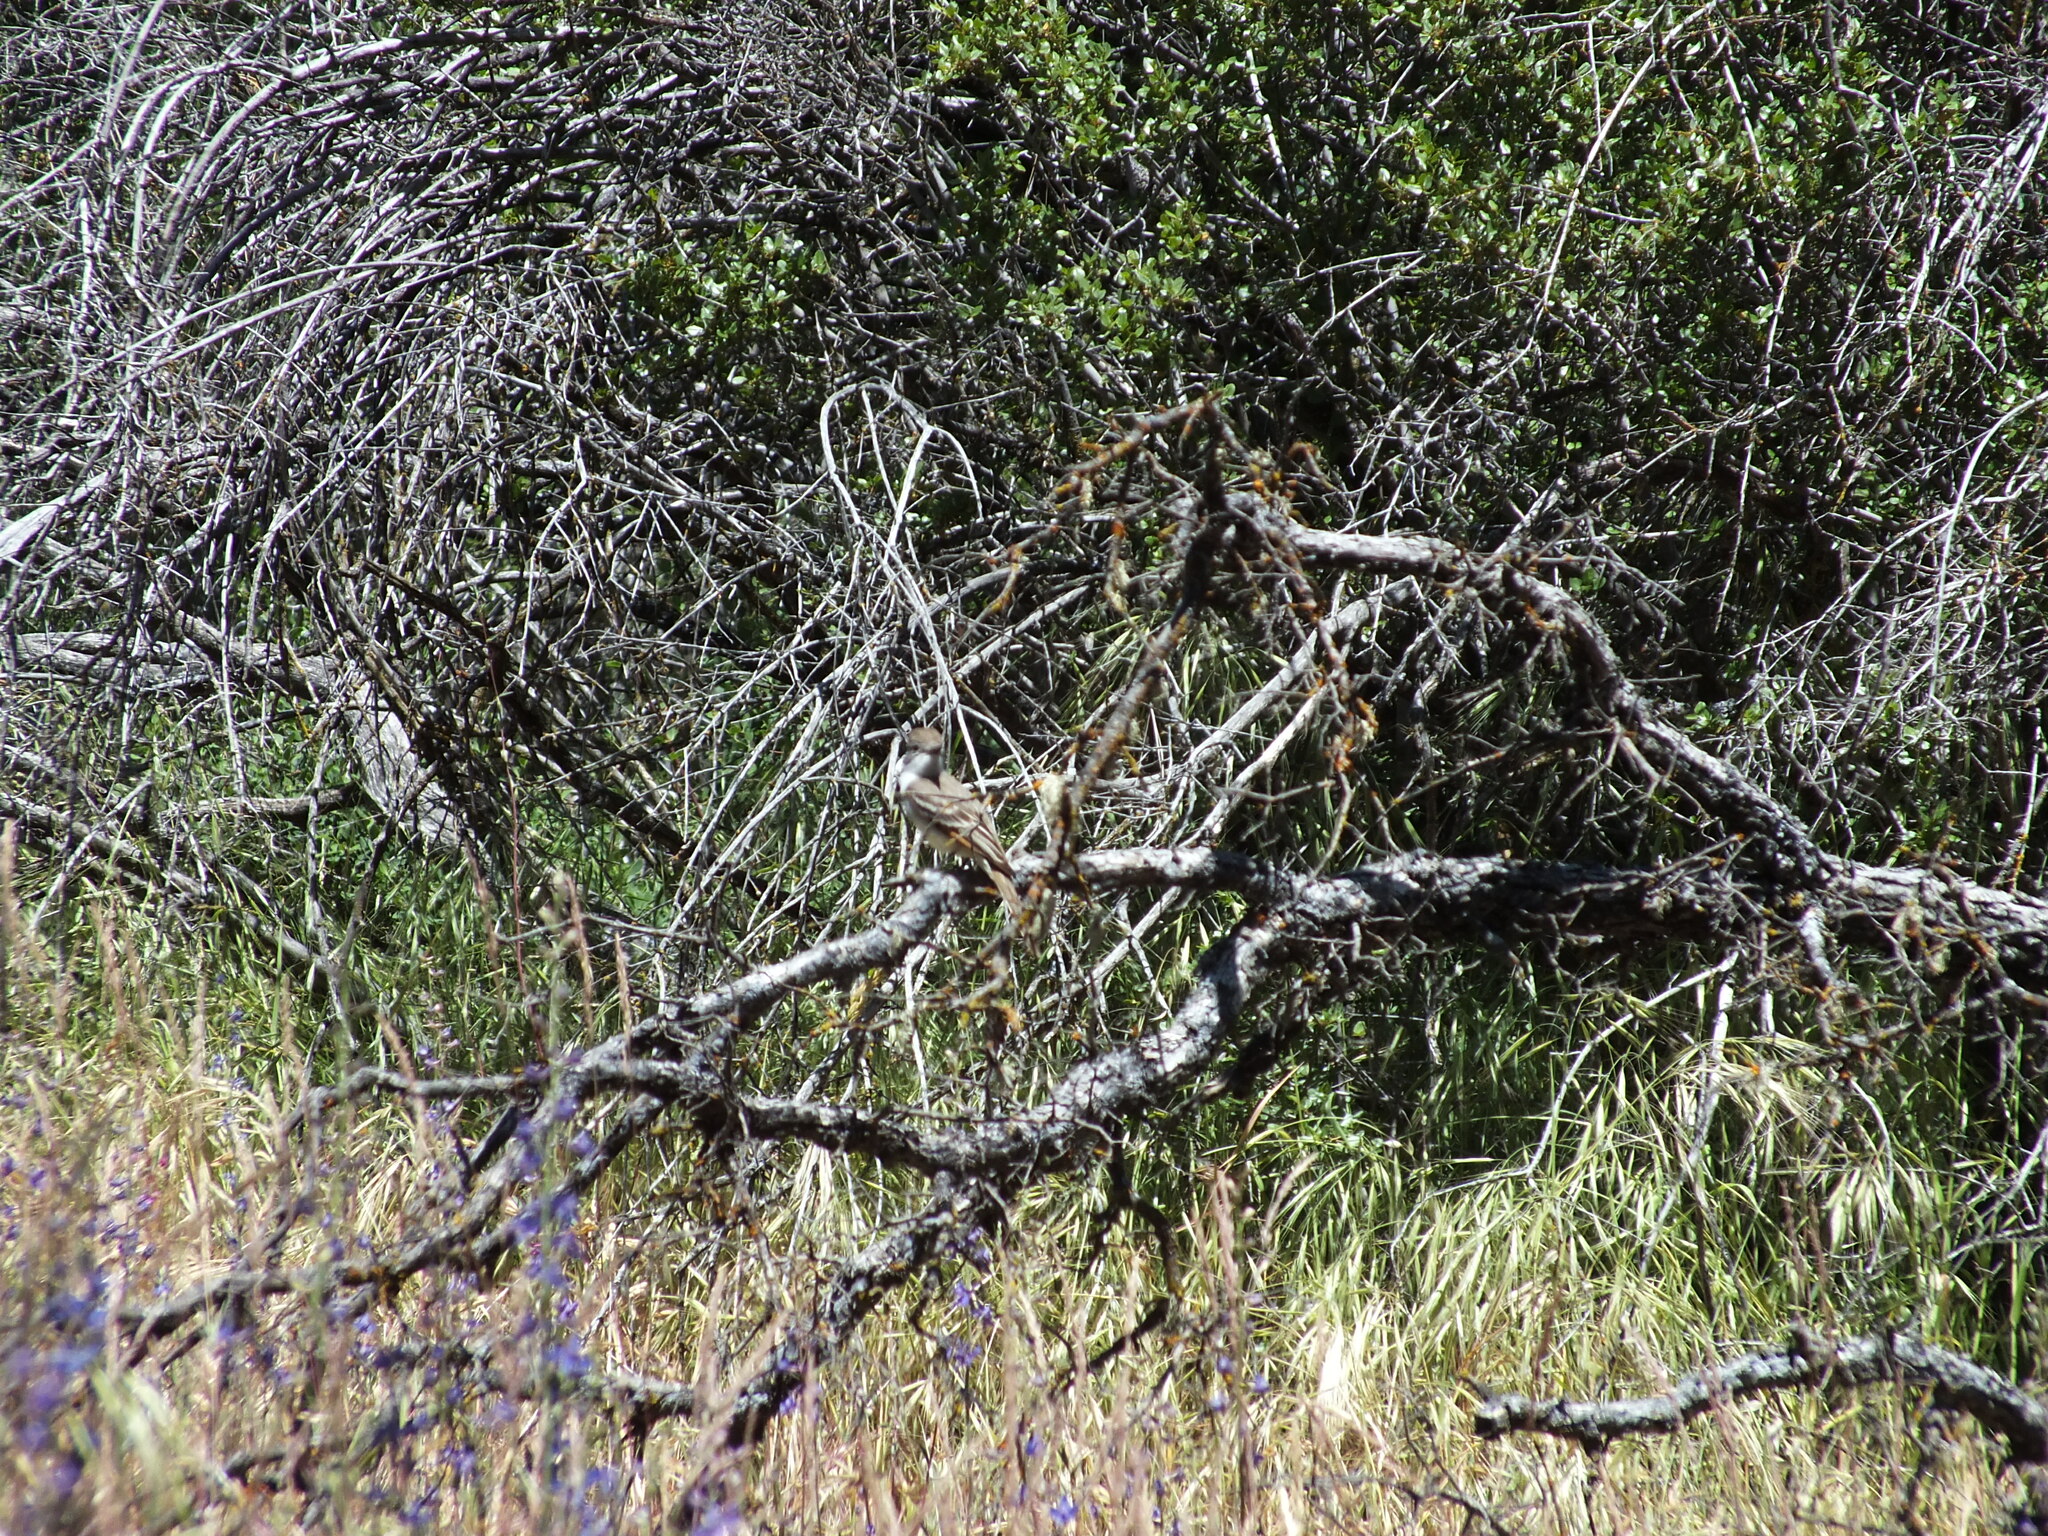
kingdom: Animalia
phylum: Chordata
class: Aves
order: Passeriformes
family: Tyrannidae
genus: Myiarchus
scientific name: Myiarchus cinerascens
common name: Ash-throated flycatcher
